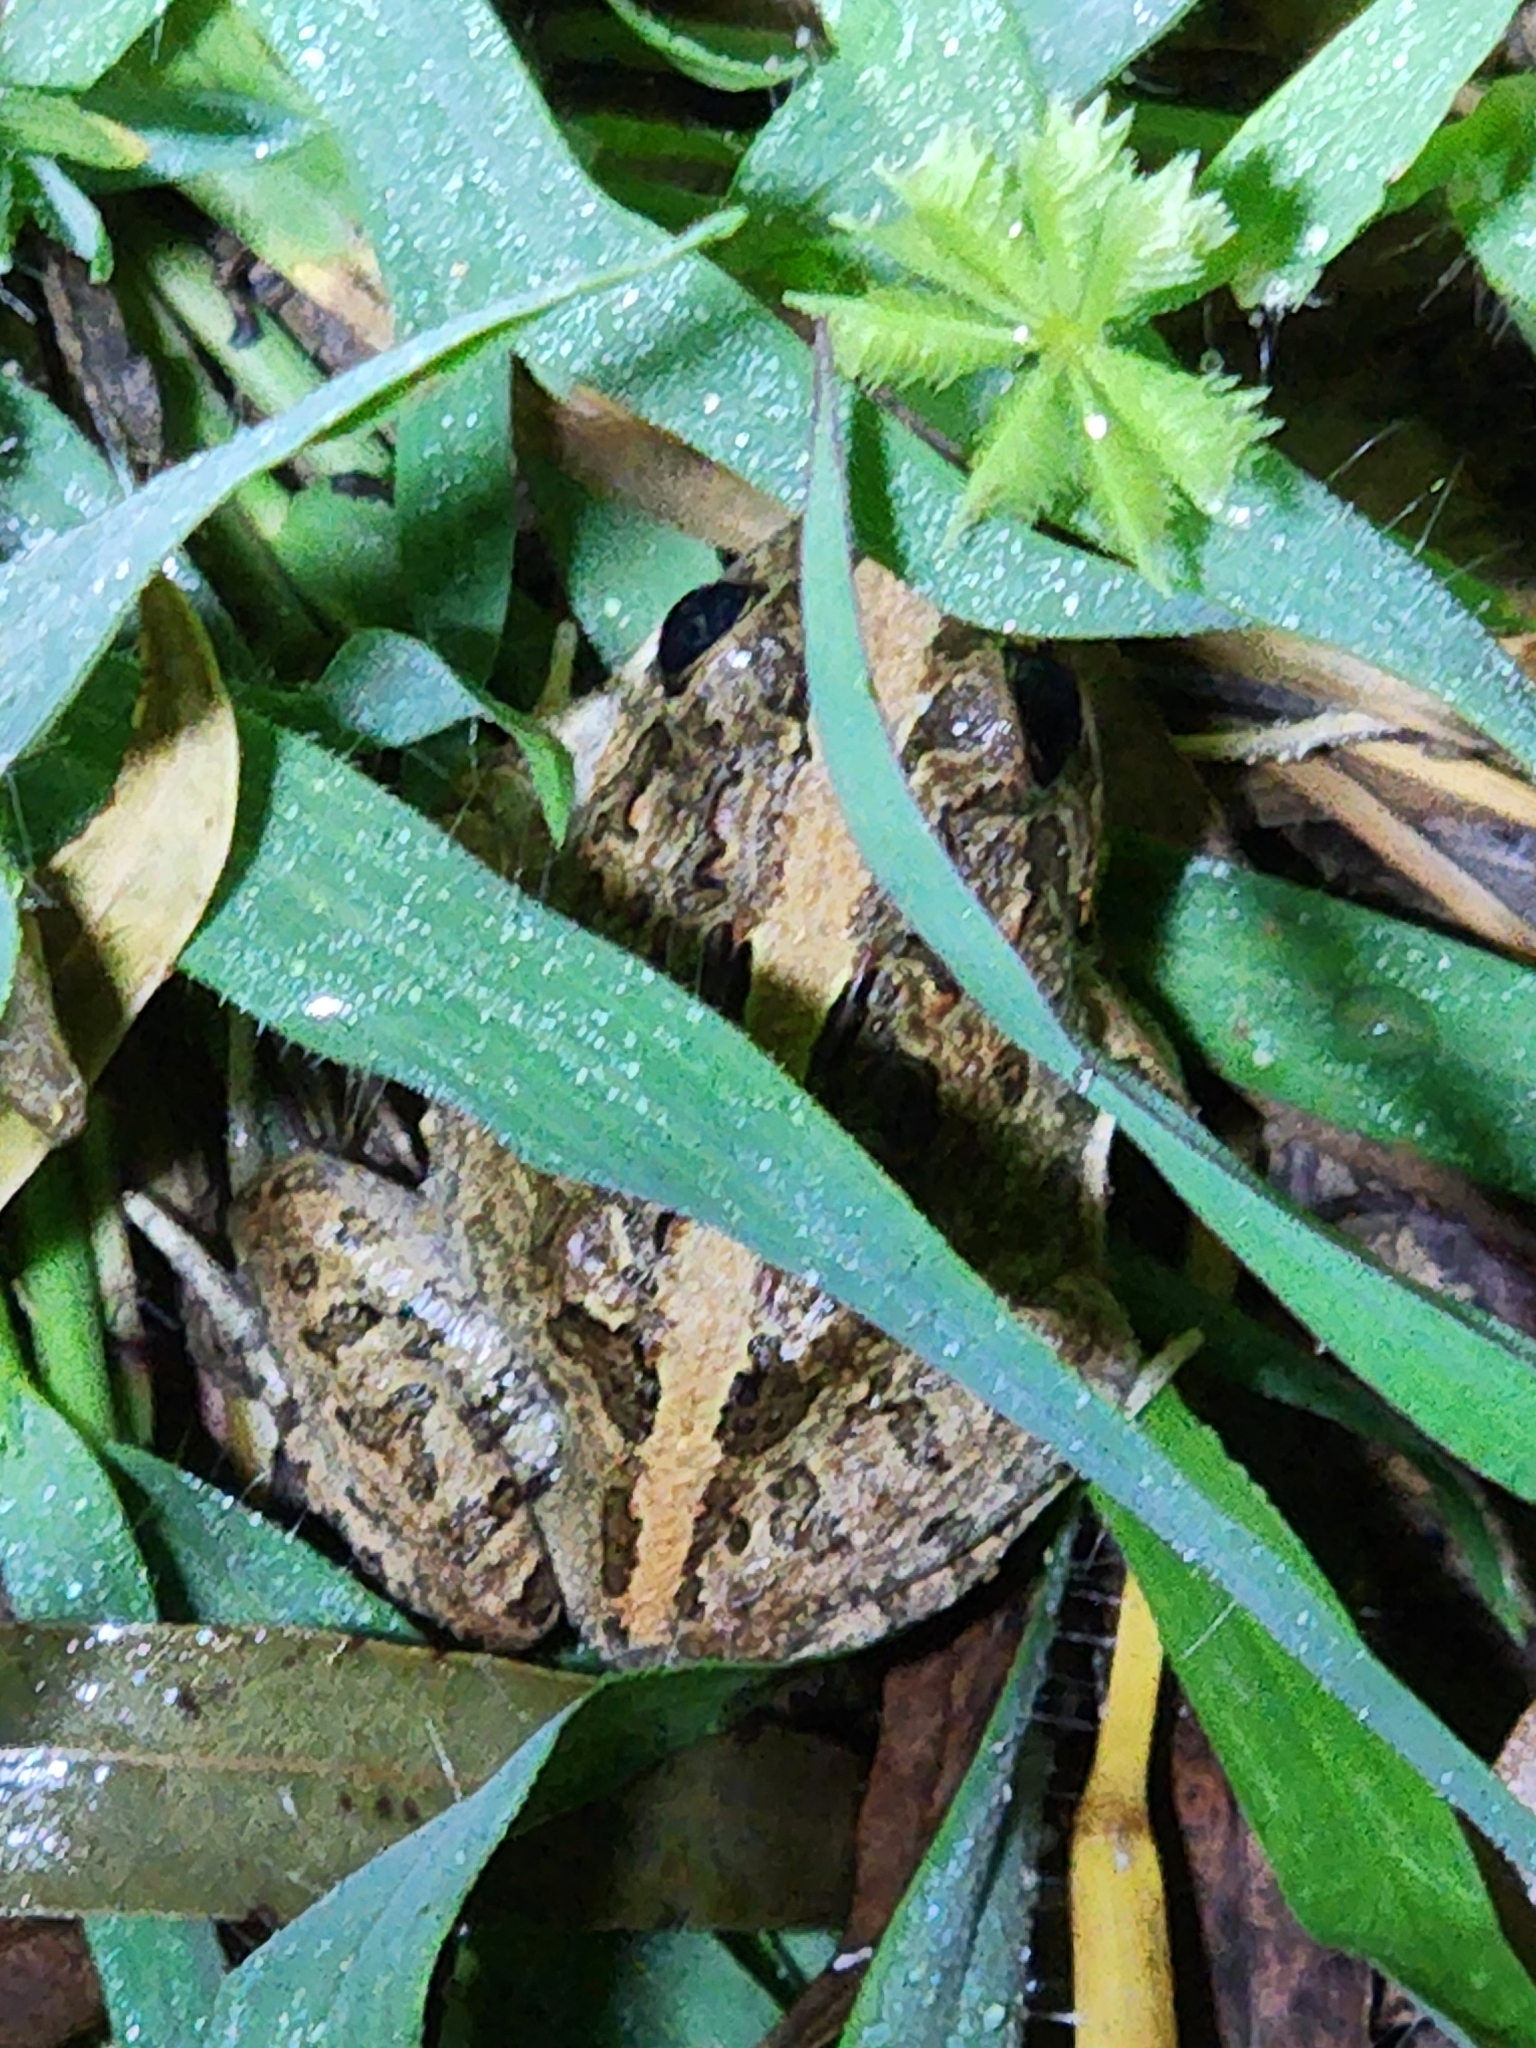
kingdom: Animalia
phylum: Chordata
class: Amphibia
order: Anura
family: Limnodynastidae
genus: Platyplectrum
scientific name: Platyplectrum ornatum
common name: Ornate burrowing frog
